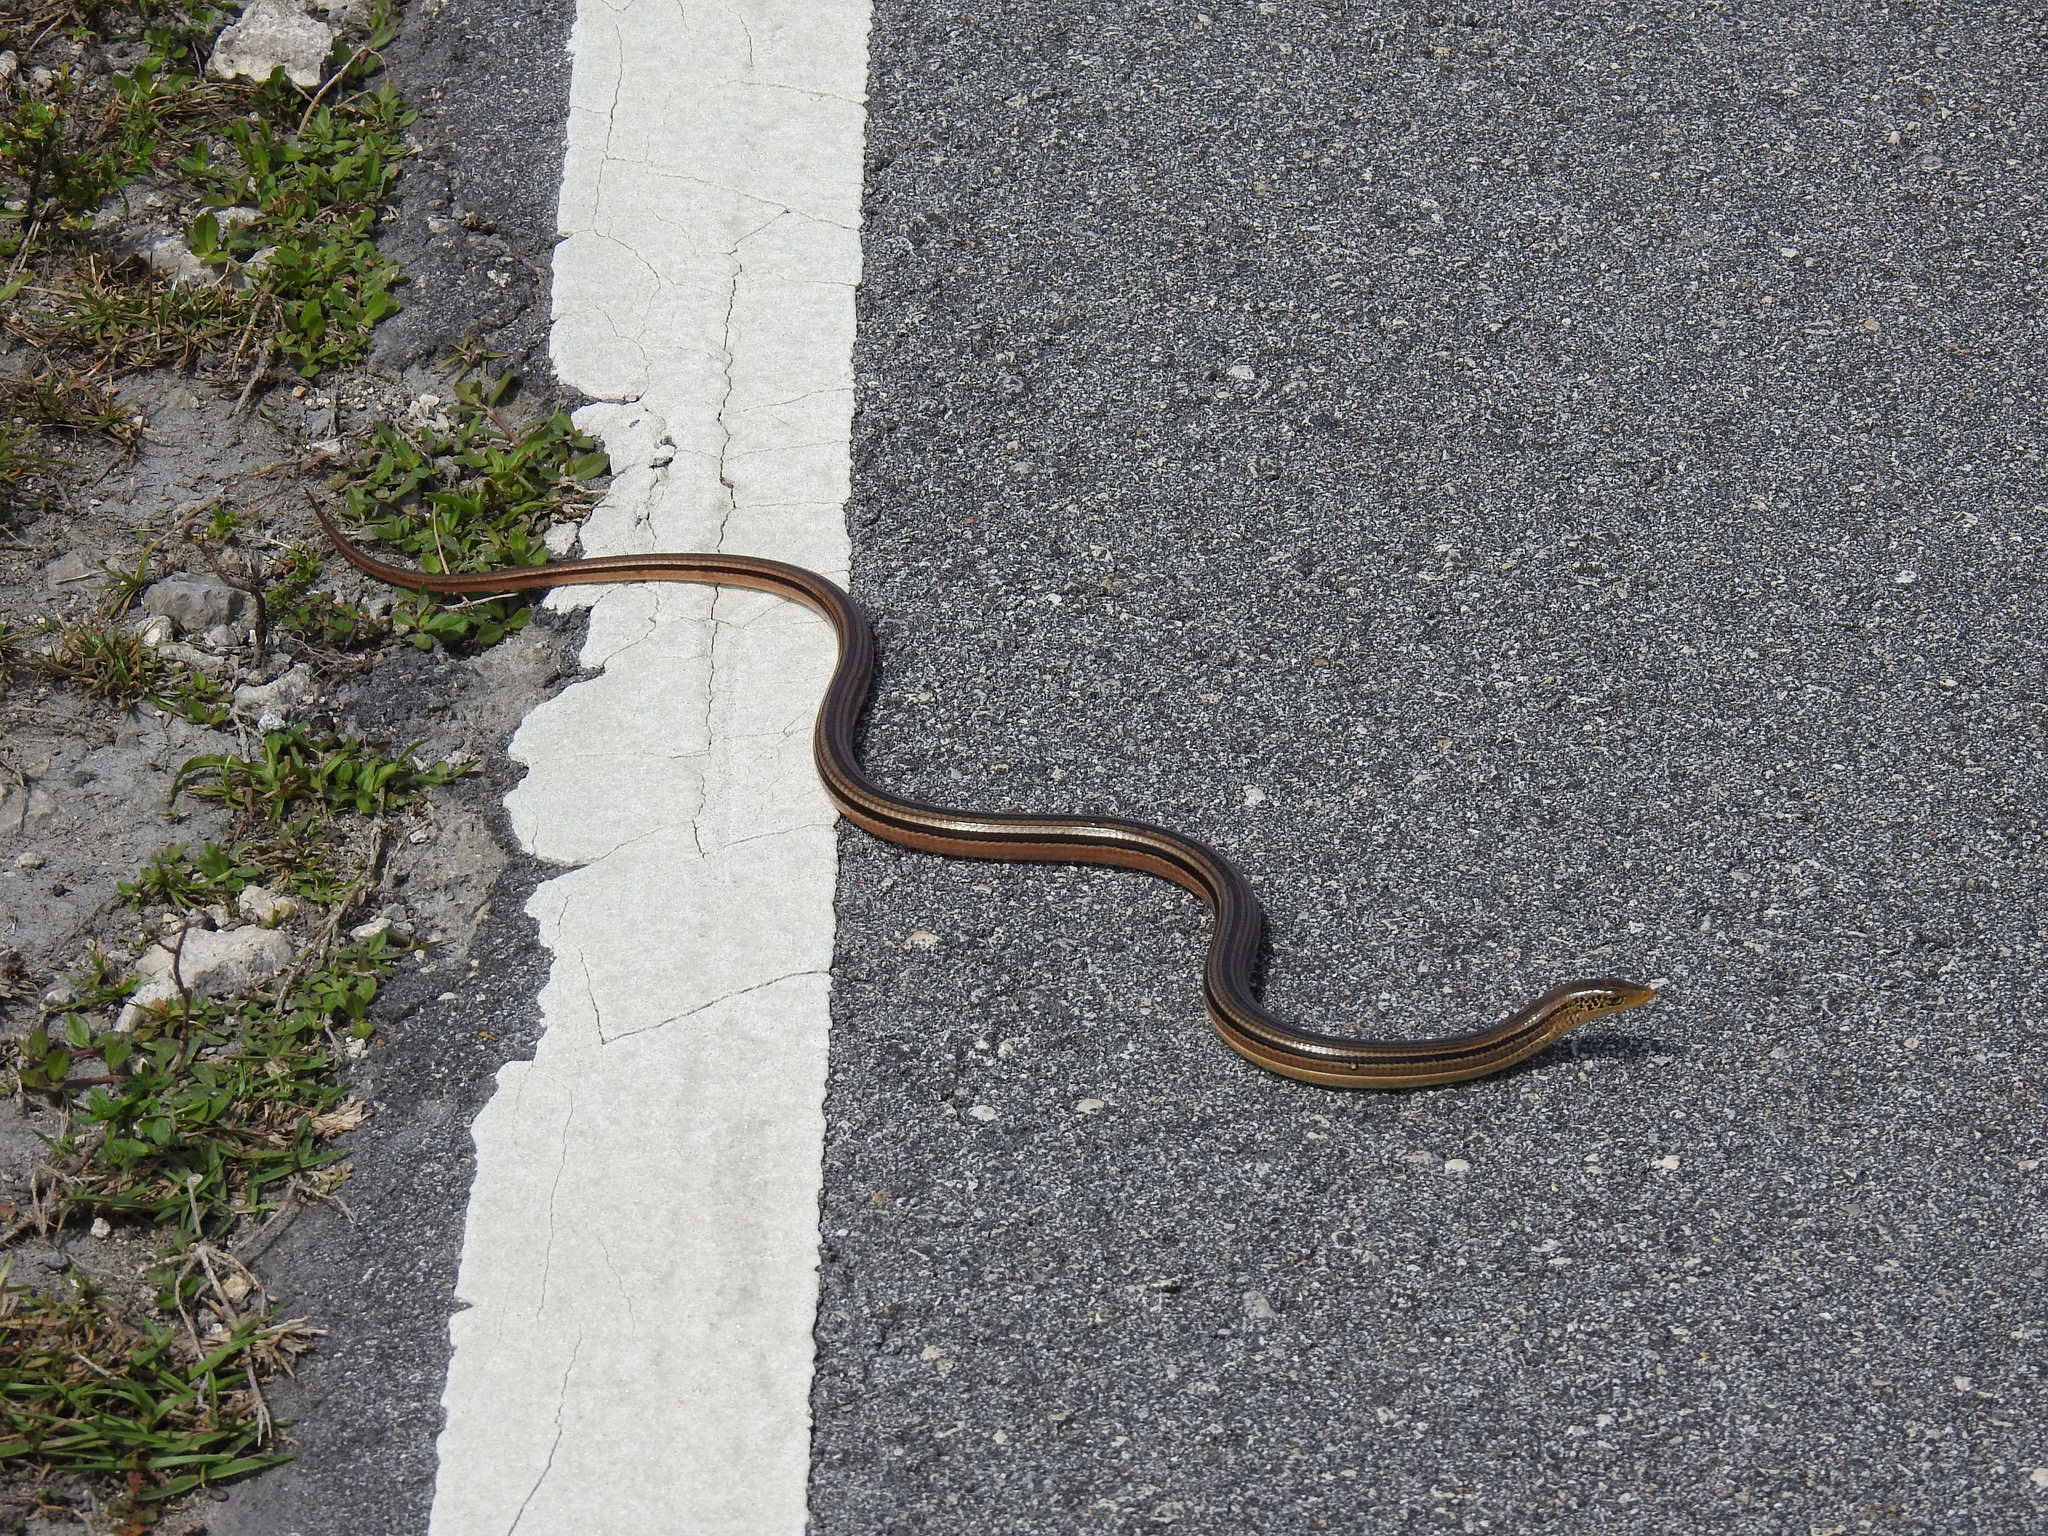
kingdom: Animalia
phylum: Chordata
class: Squamata
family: Anguidae
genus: Ophisaurus
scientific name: Ophisaurus compressus
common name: Island glass lizard
